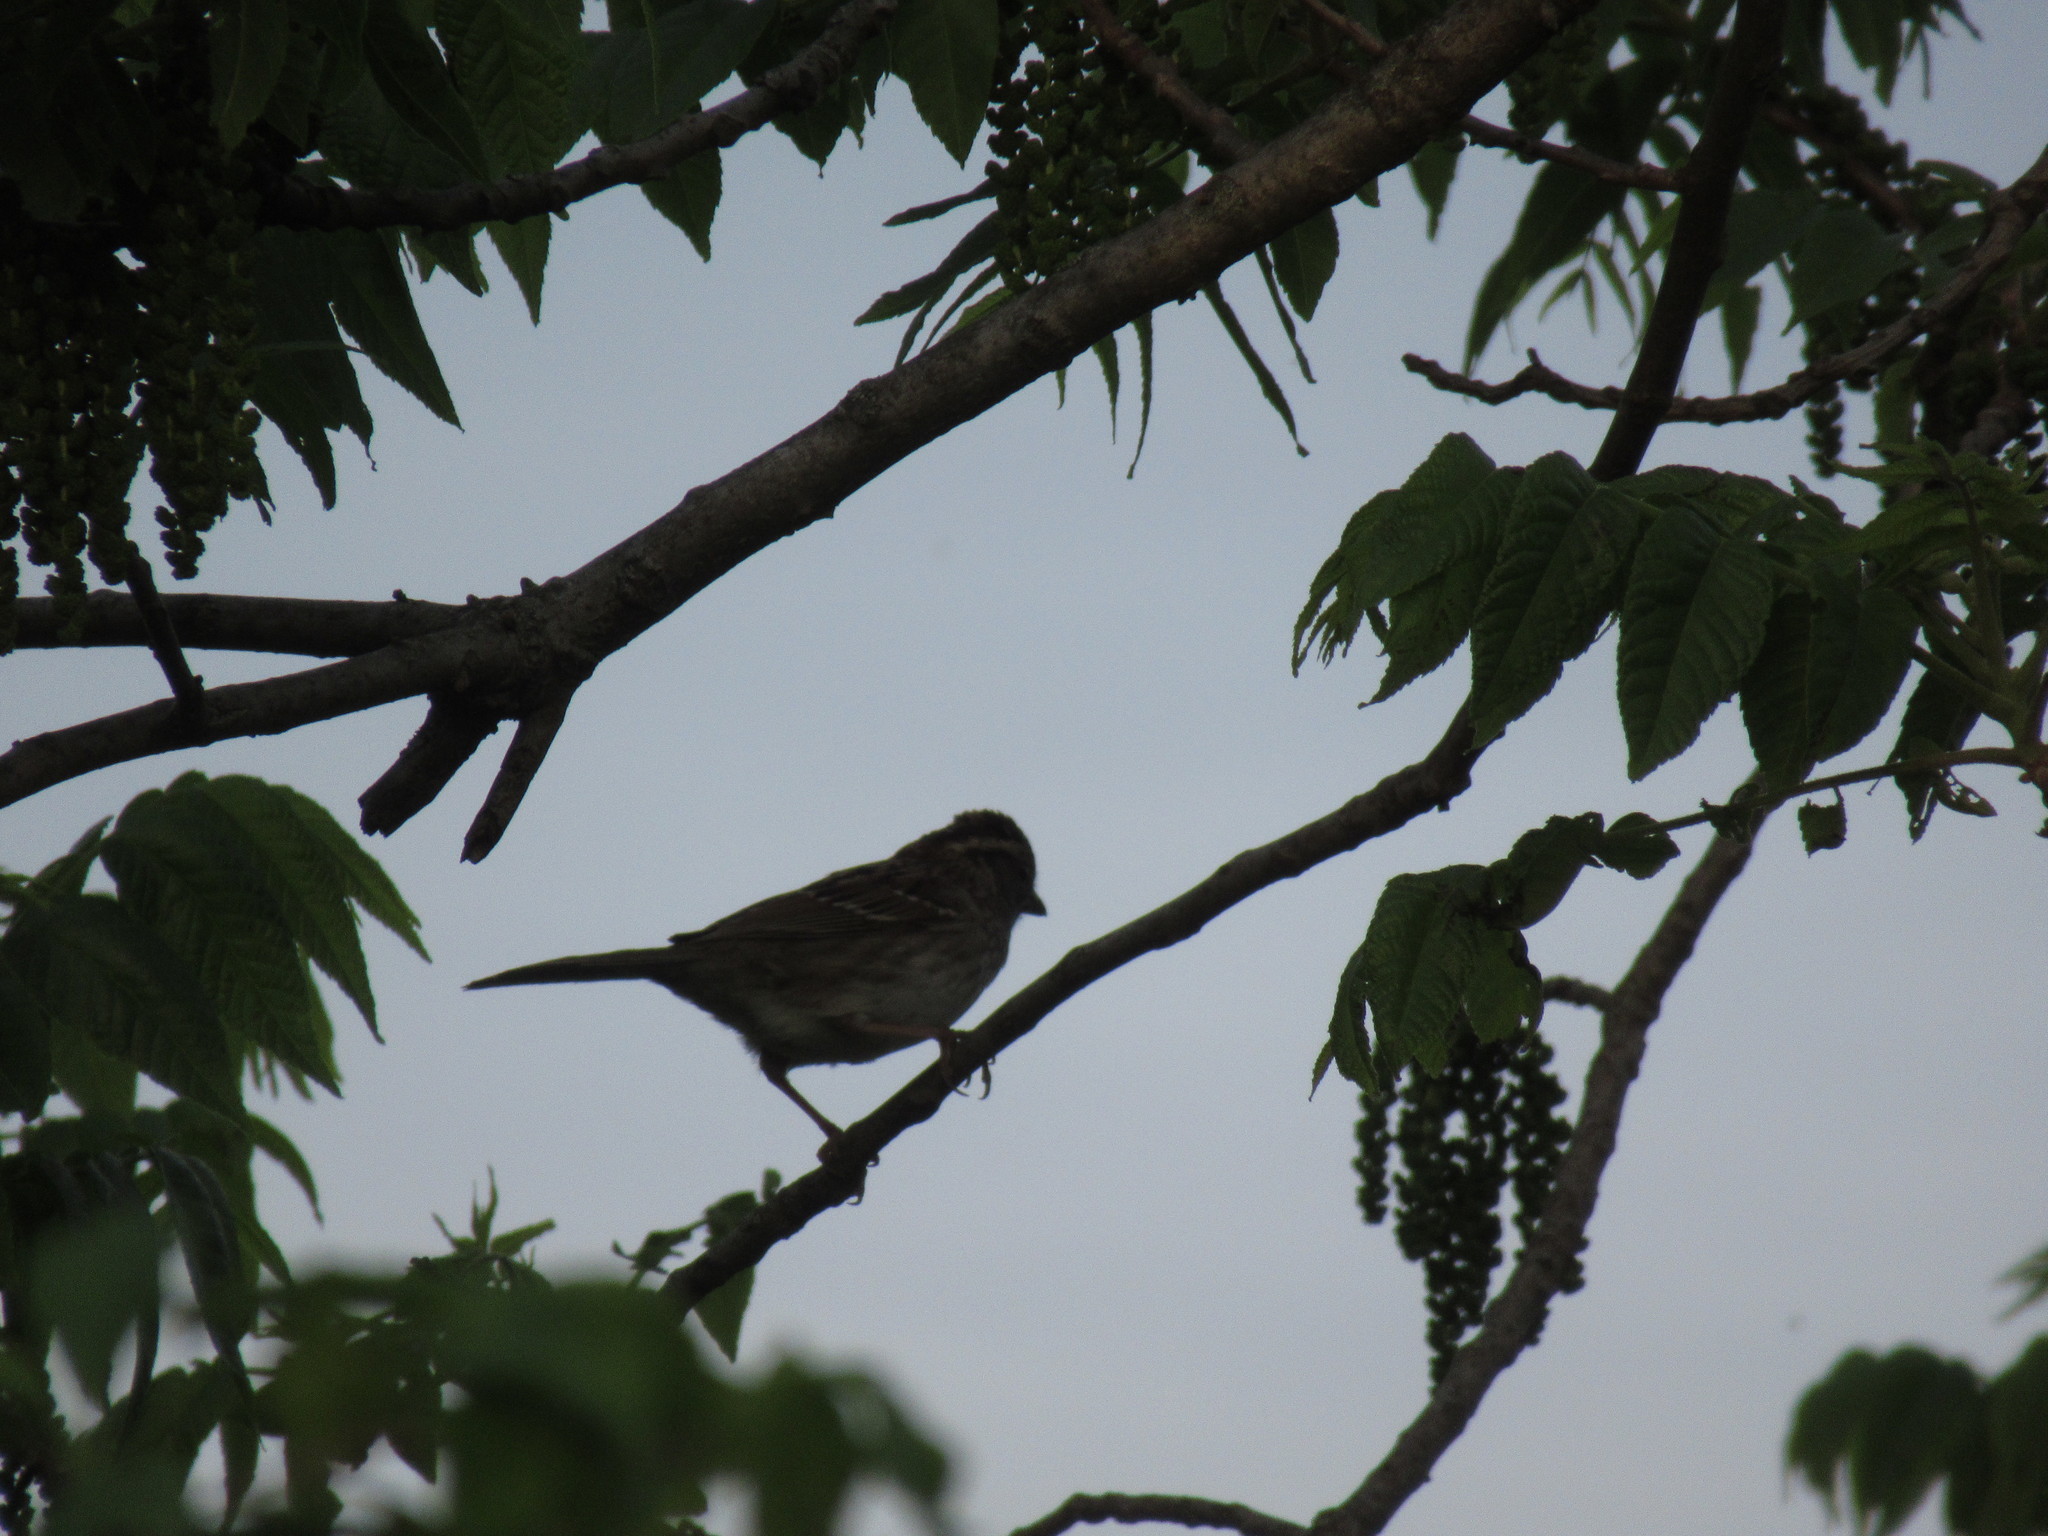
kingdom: Animalia
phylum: Chordata
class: Aves
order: Passeriformes
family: Passerellidae
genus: Zonotrichia
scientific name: Zonotrichia albicollis
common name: White-throated sparrow
